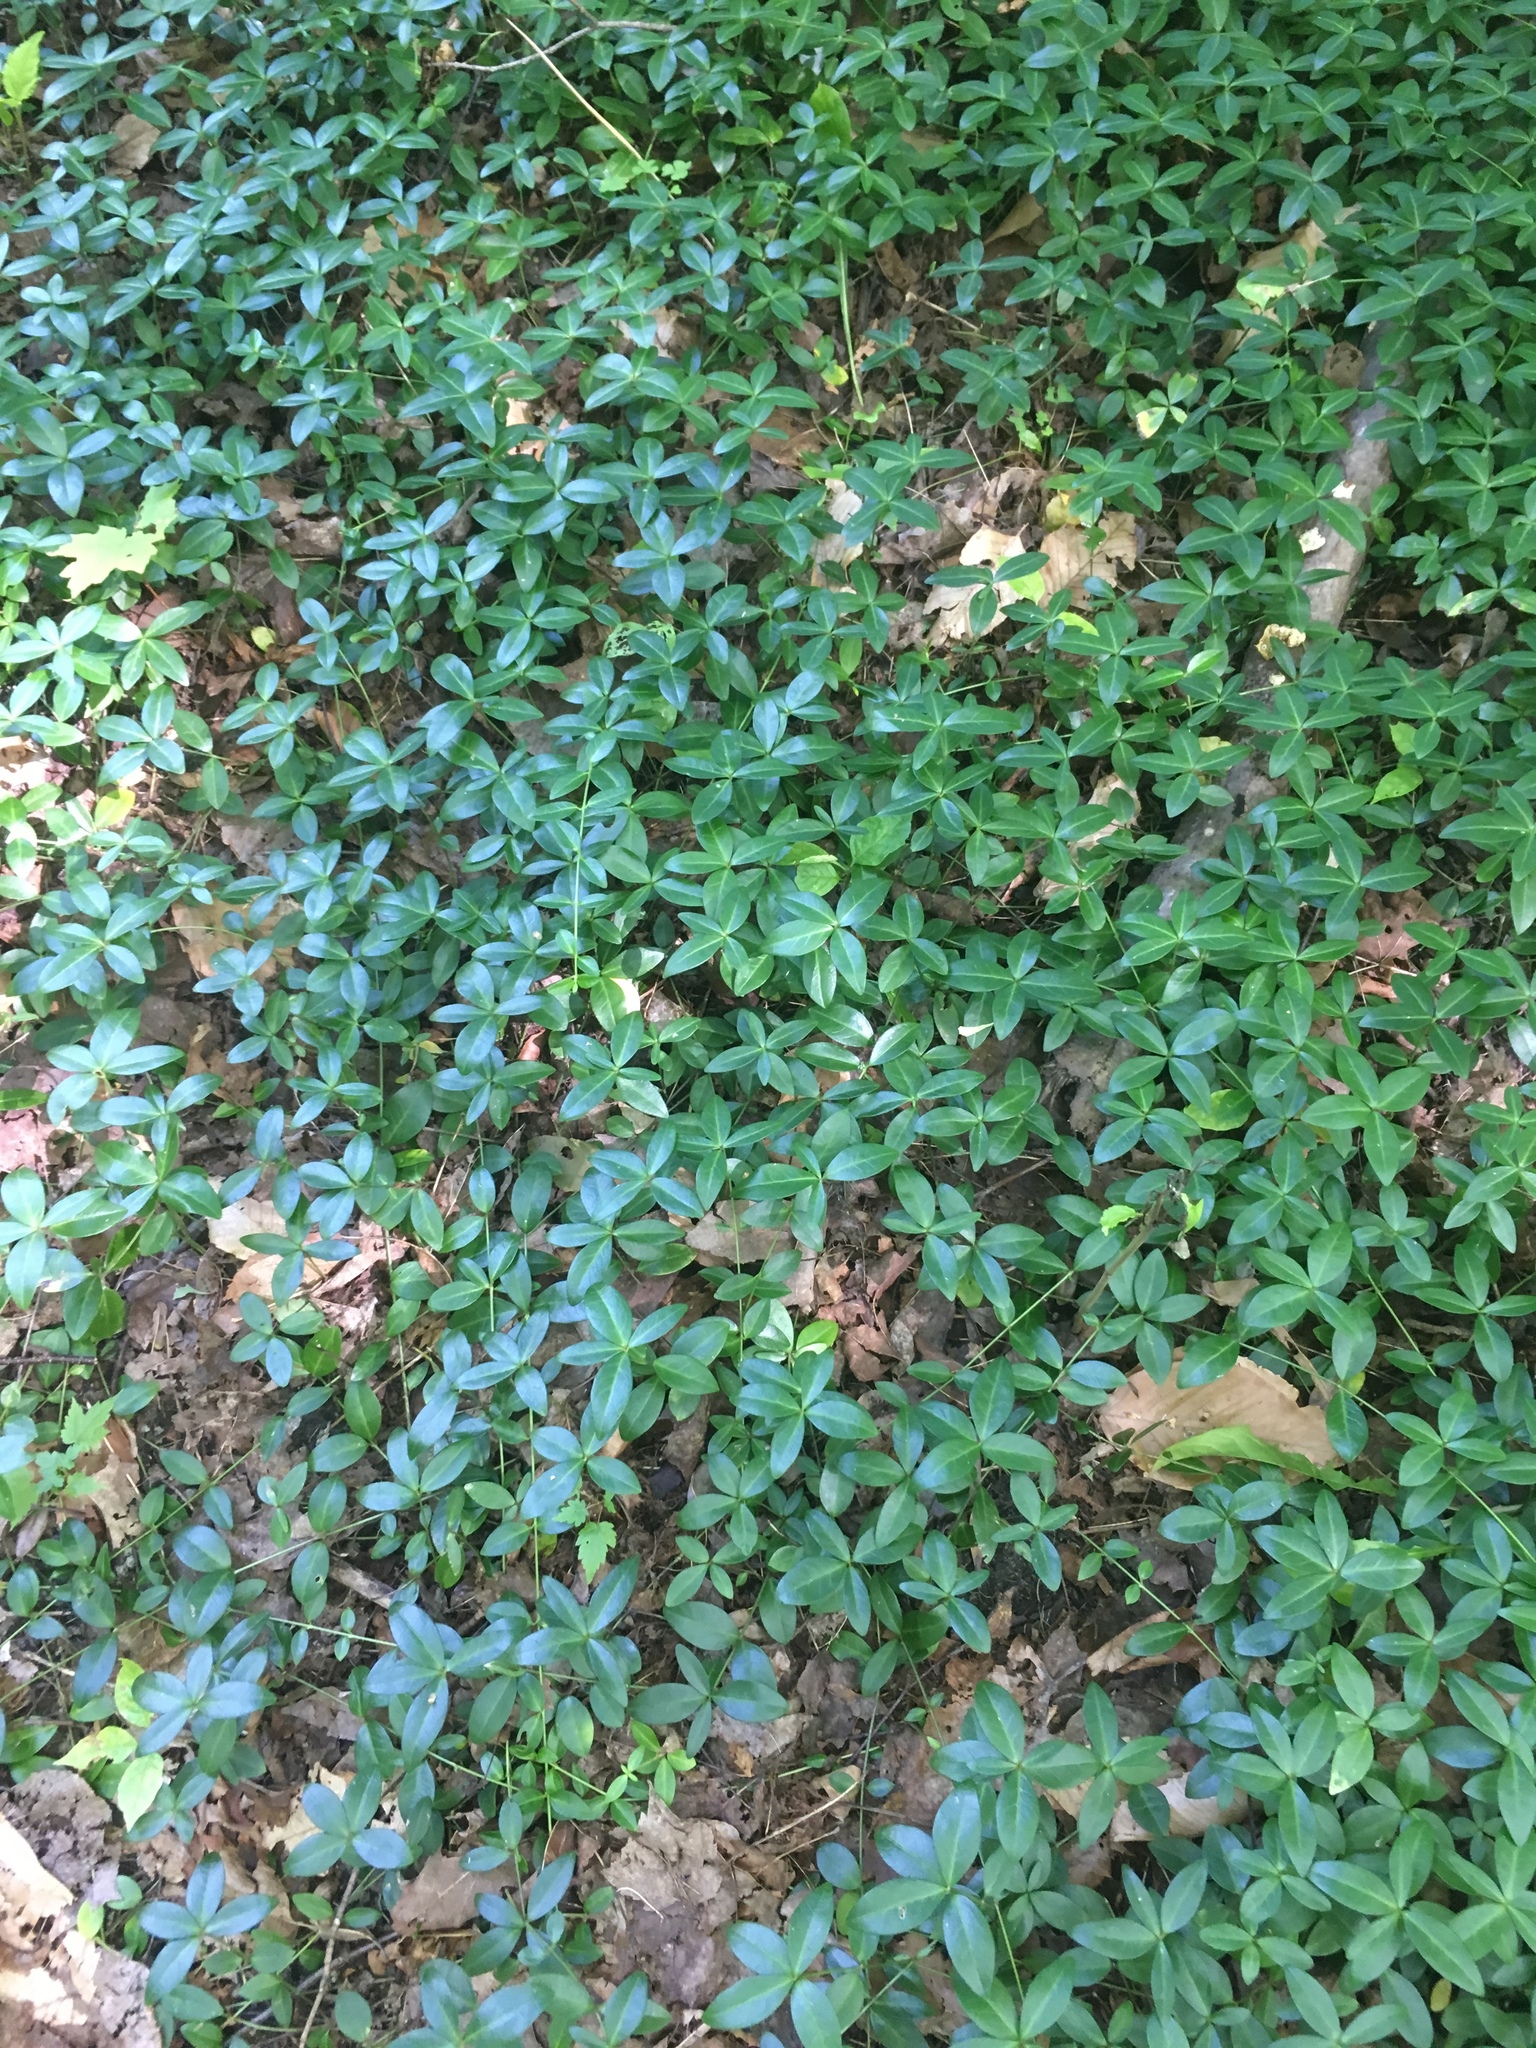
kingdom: Plantae
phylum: Tracheophyta
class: Magnoliopsida
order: Gentianales
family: Apocynaceae
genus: Vinca
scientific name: Vinca minor
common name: Lesser periwinkle
